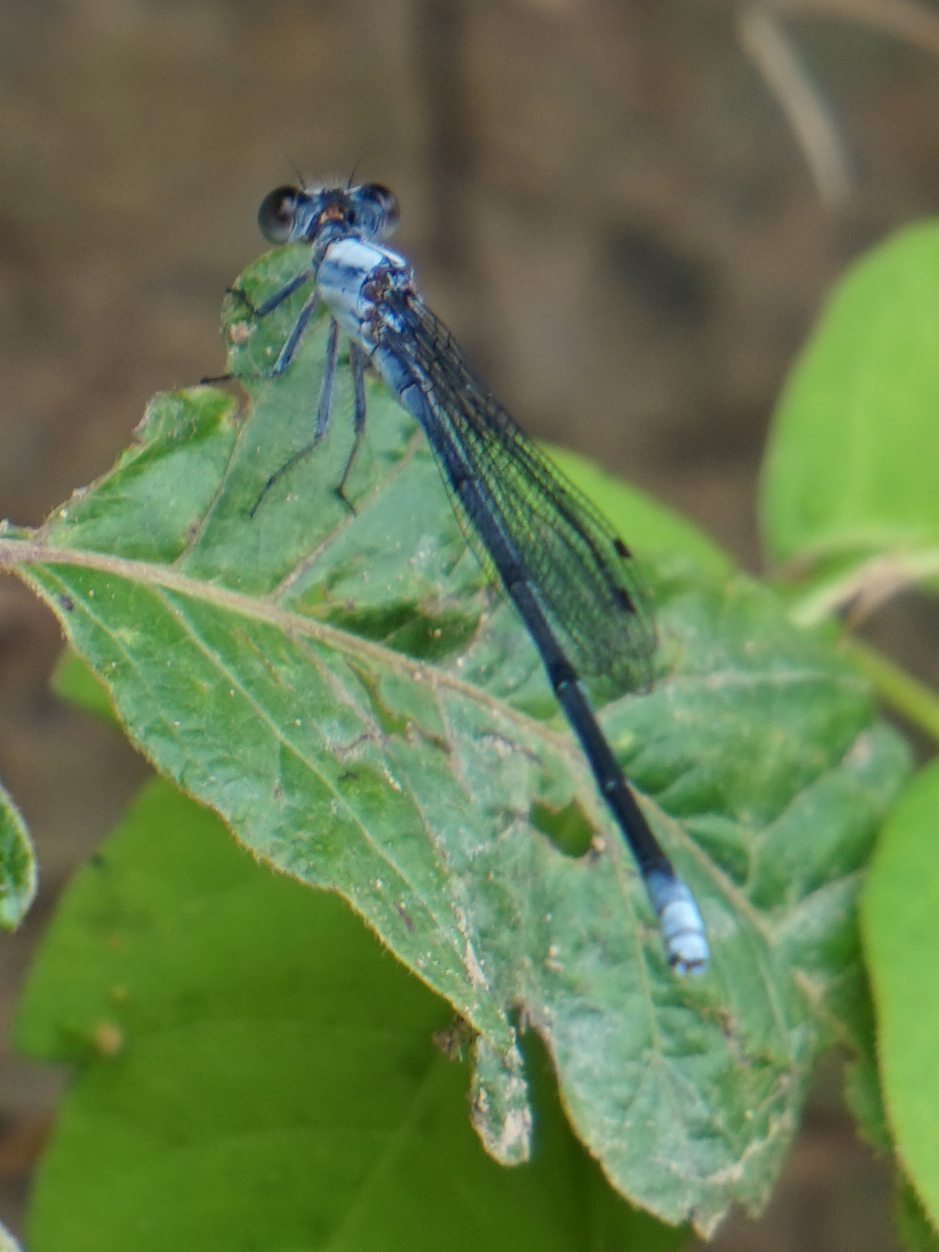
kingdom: Animalia
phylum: Arthropoda
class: Insecta
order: Odonata
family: Coenagrionidae
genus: Argia
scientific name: Argia moesta
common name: Powdered dancer
